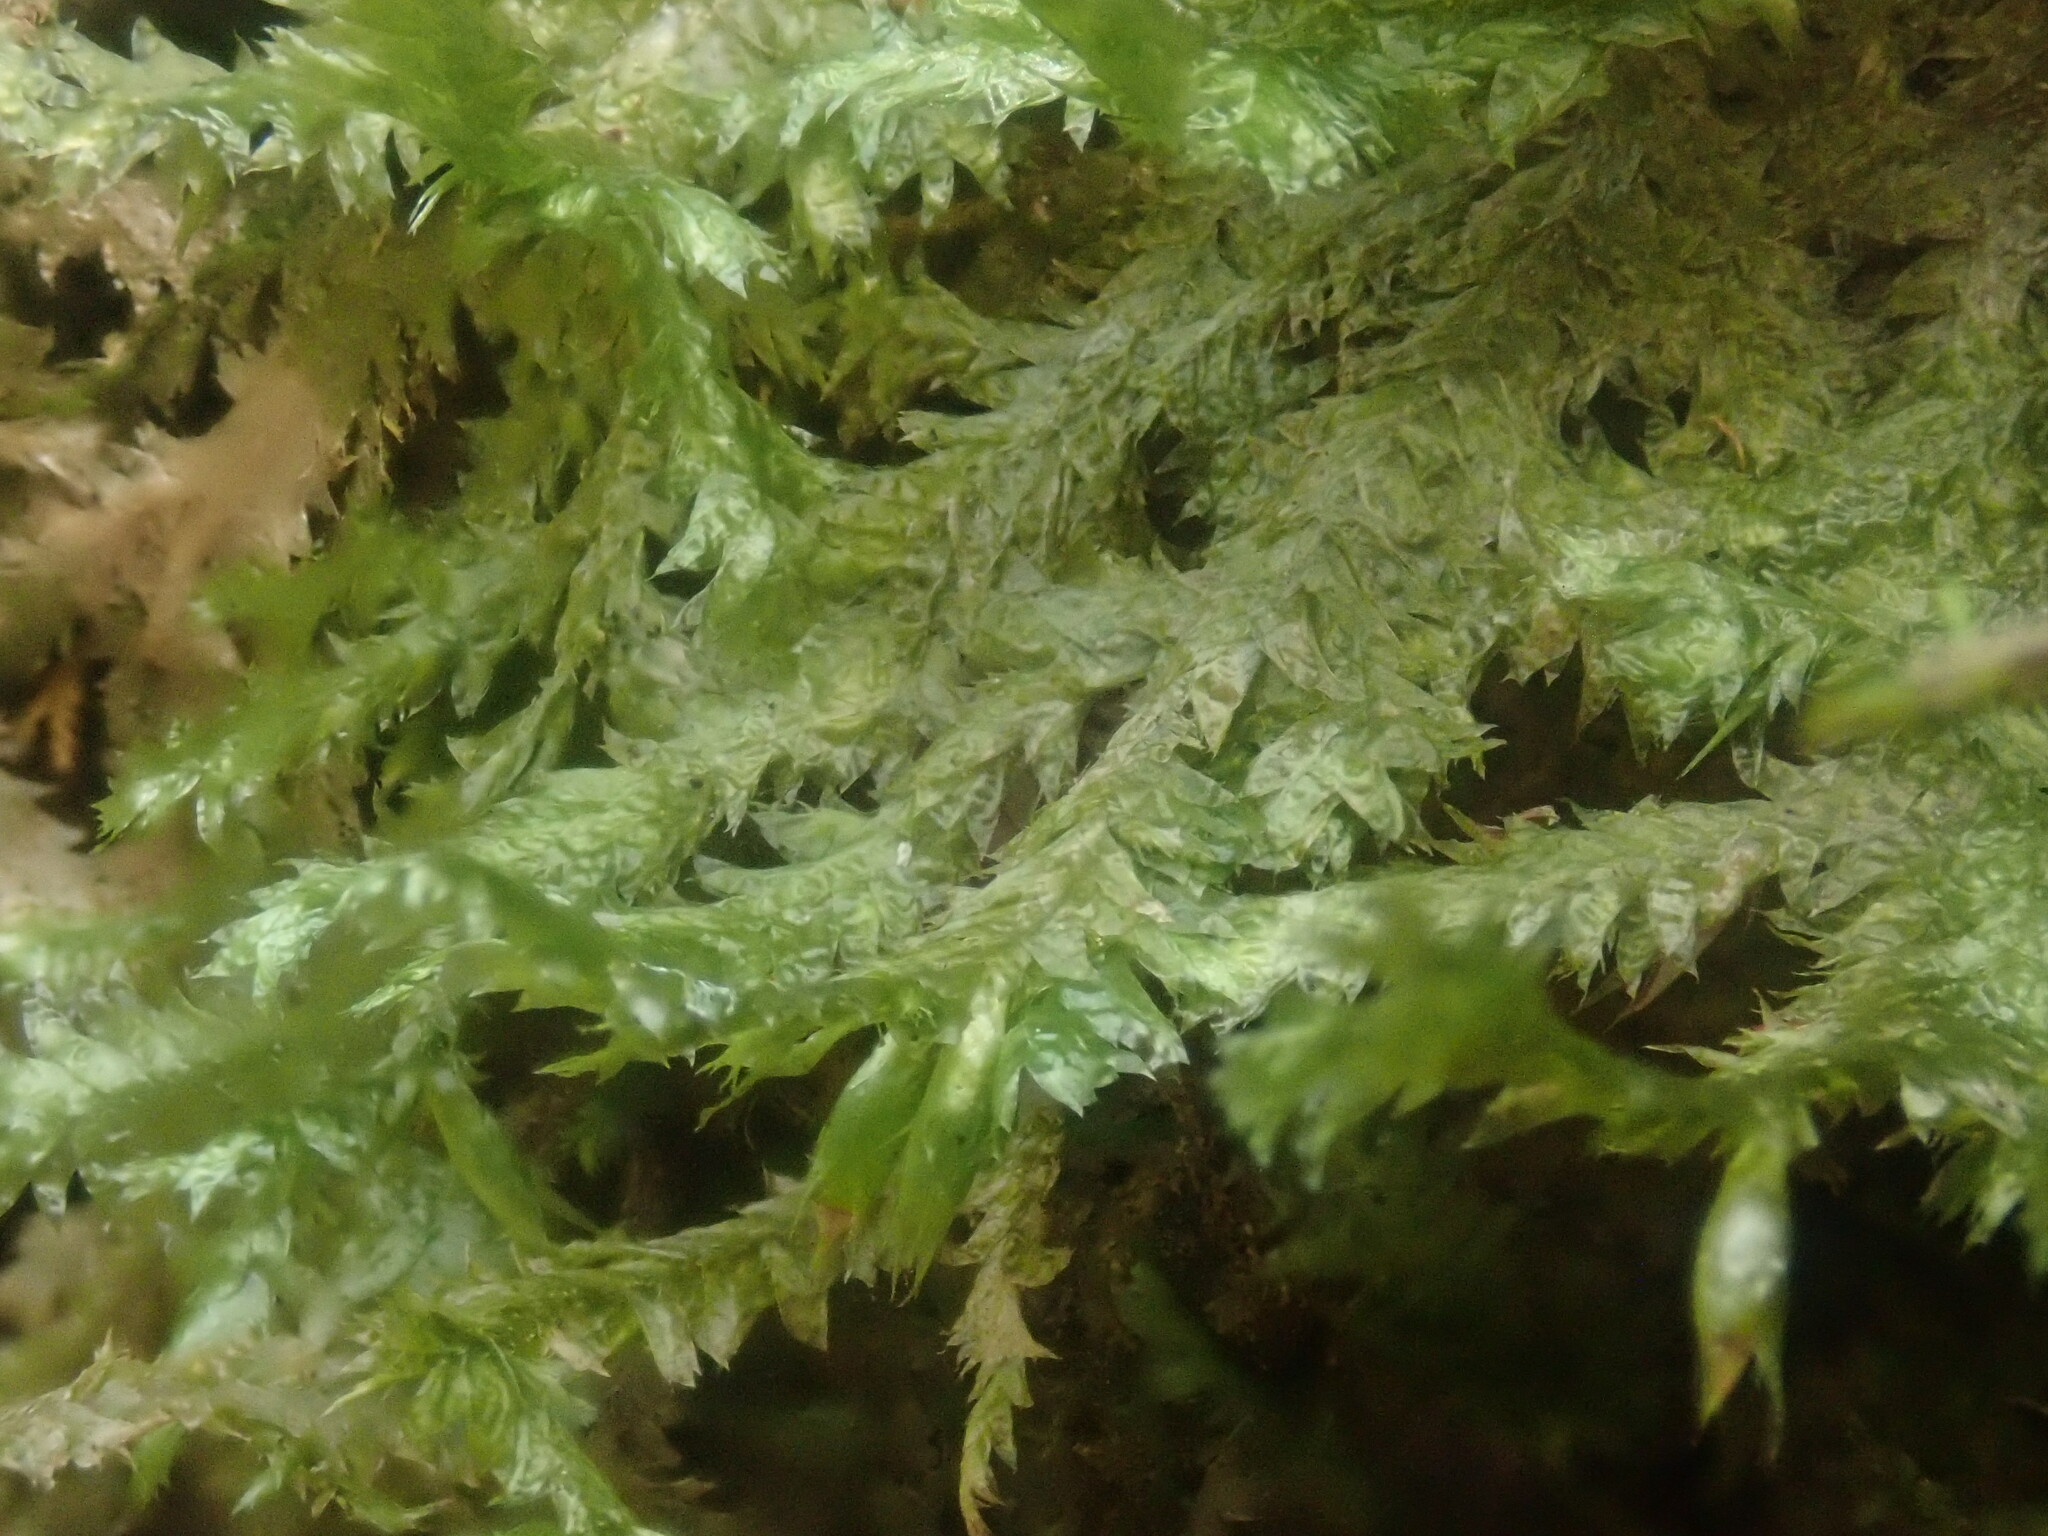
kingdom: Plantae
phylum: Bryophyta
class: Bryopsida
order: Hypnales
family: Neckeraceae
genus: Neckera
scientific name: Neckera pennata
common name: Feathery neckera
